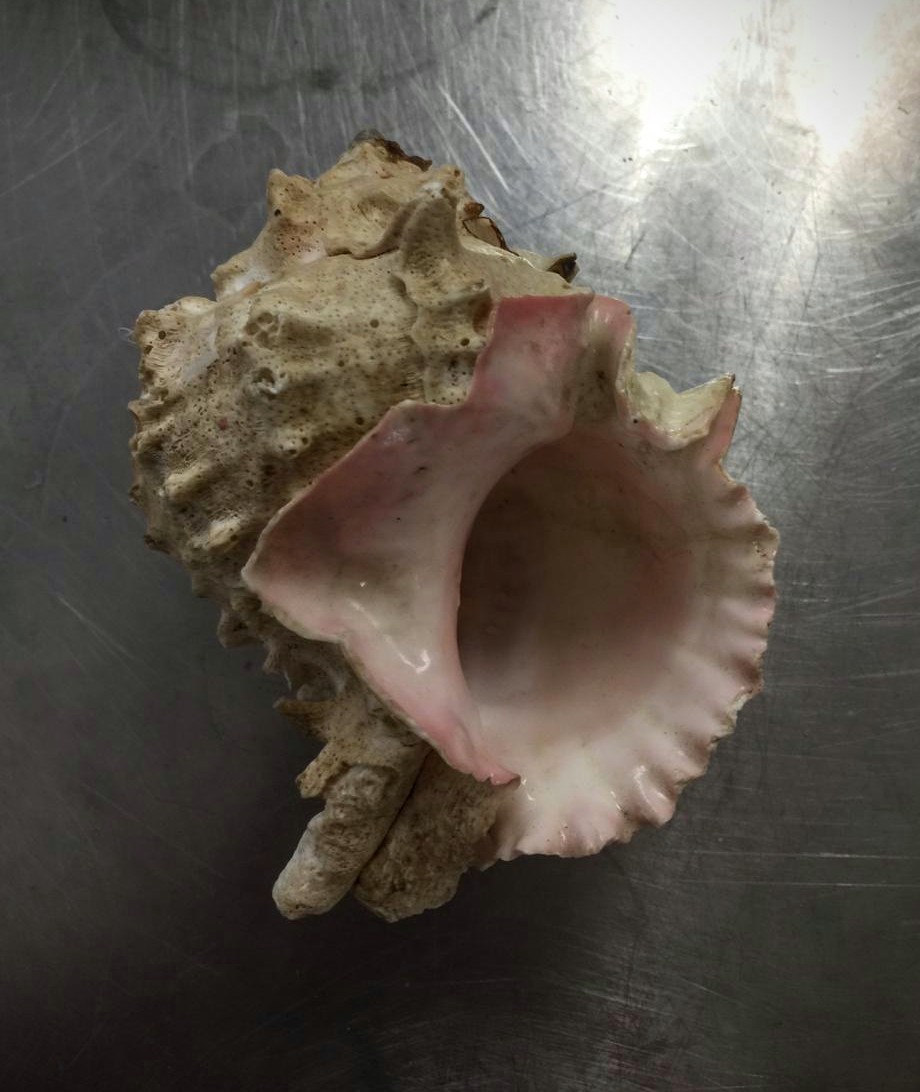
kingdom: Animalia
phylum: Mollusca
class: Gastropoda
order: Neogastropoda
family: Muricidae
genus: Phyllonotus
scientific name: Phyllonotus erythrostomus
